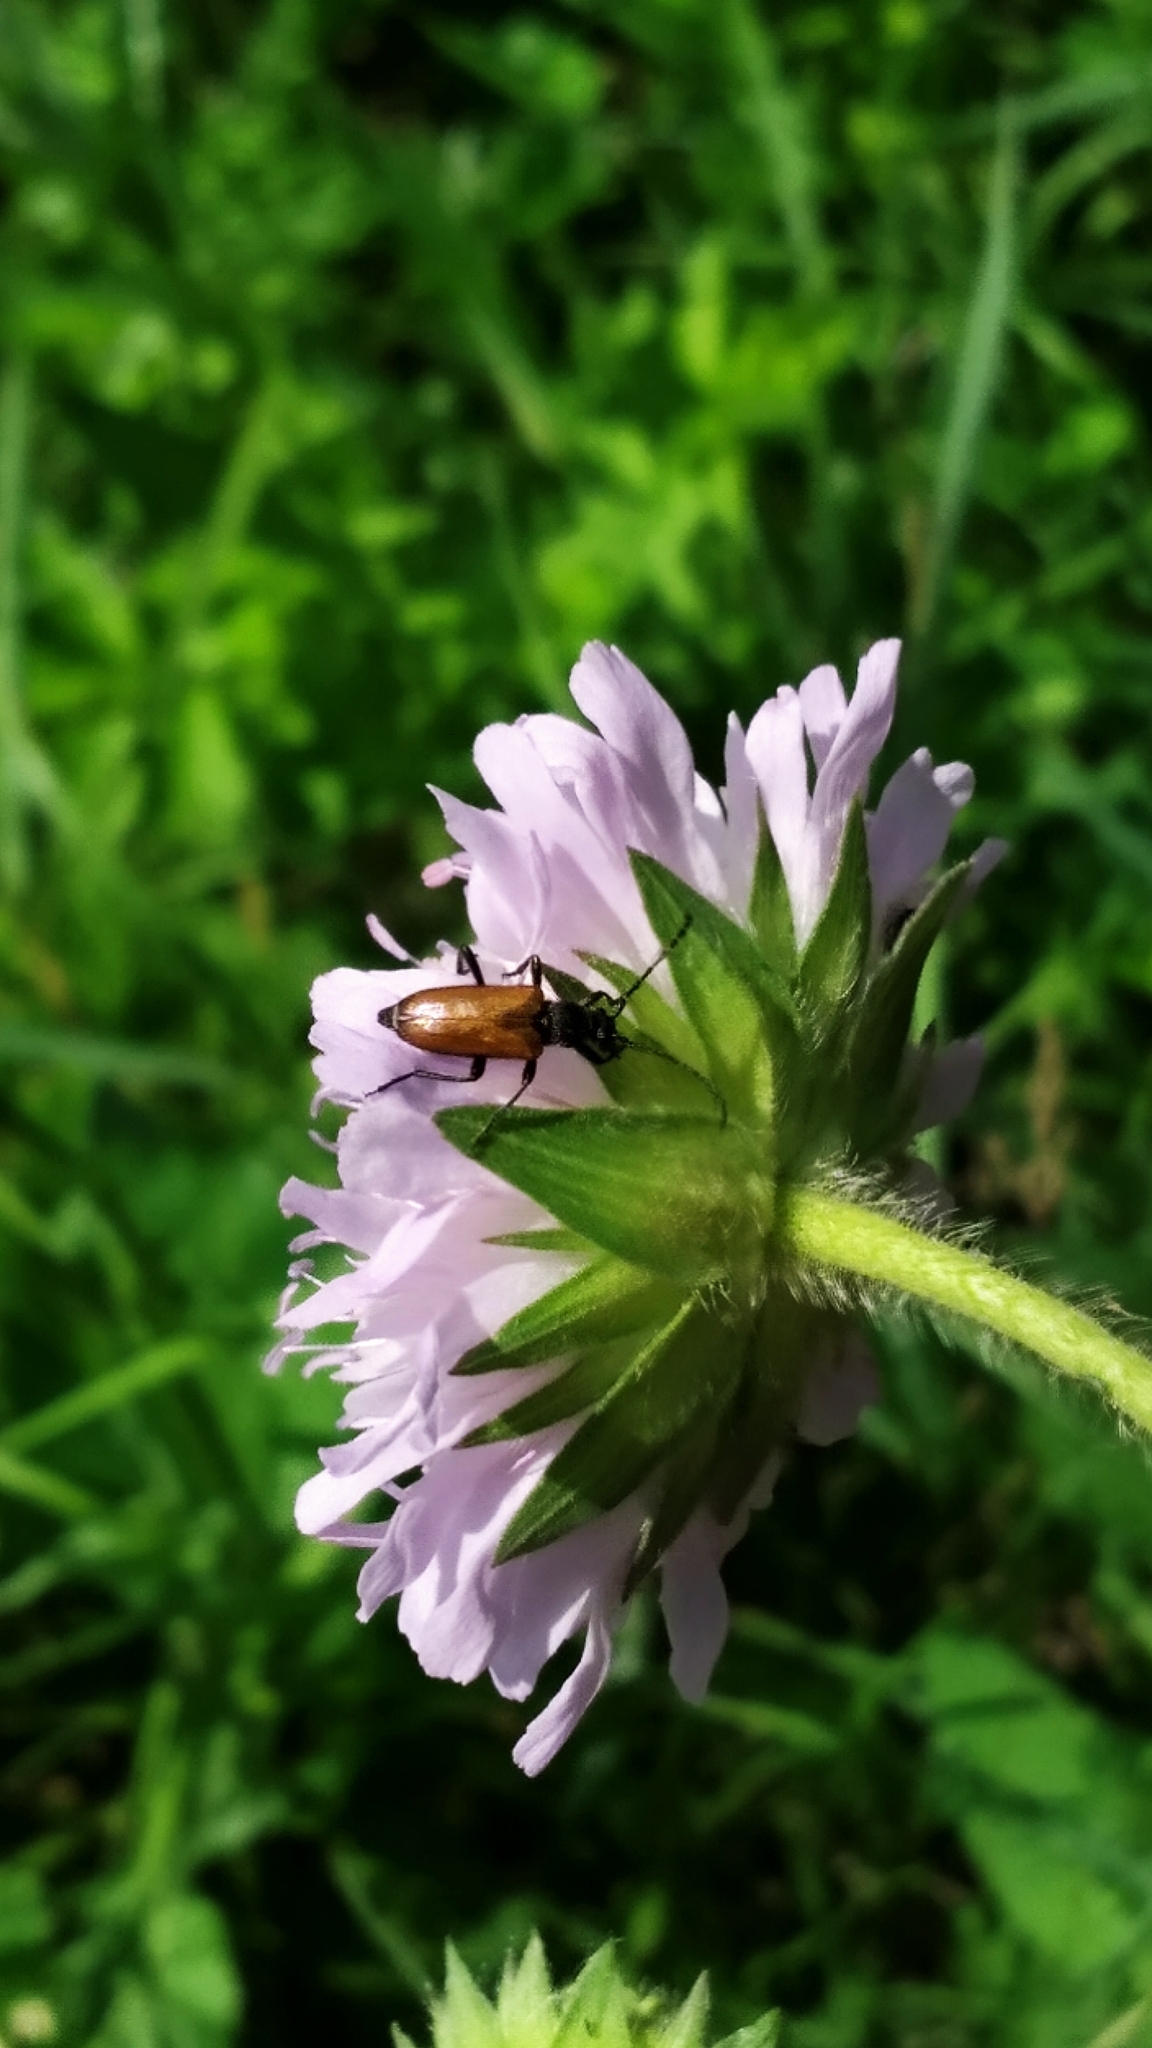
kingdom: Animalia
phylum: Arthropoda
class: Insecta
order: Coleoptera
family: Cerambycidae
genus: Paracorymbia
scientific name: Paracorymbia maculicornis
